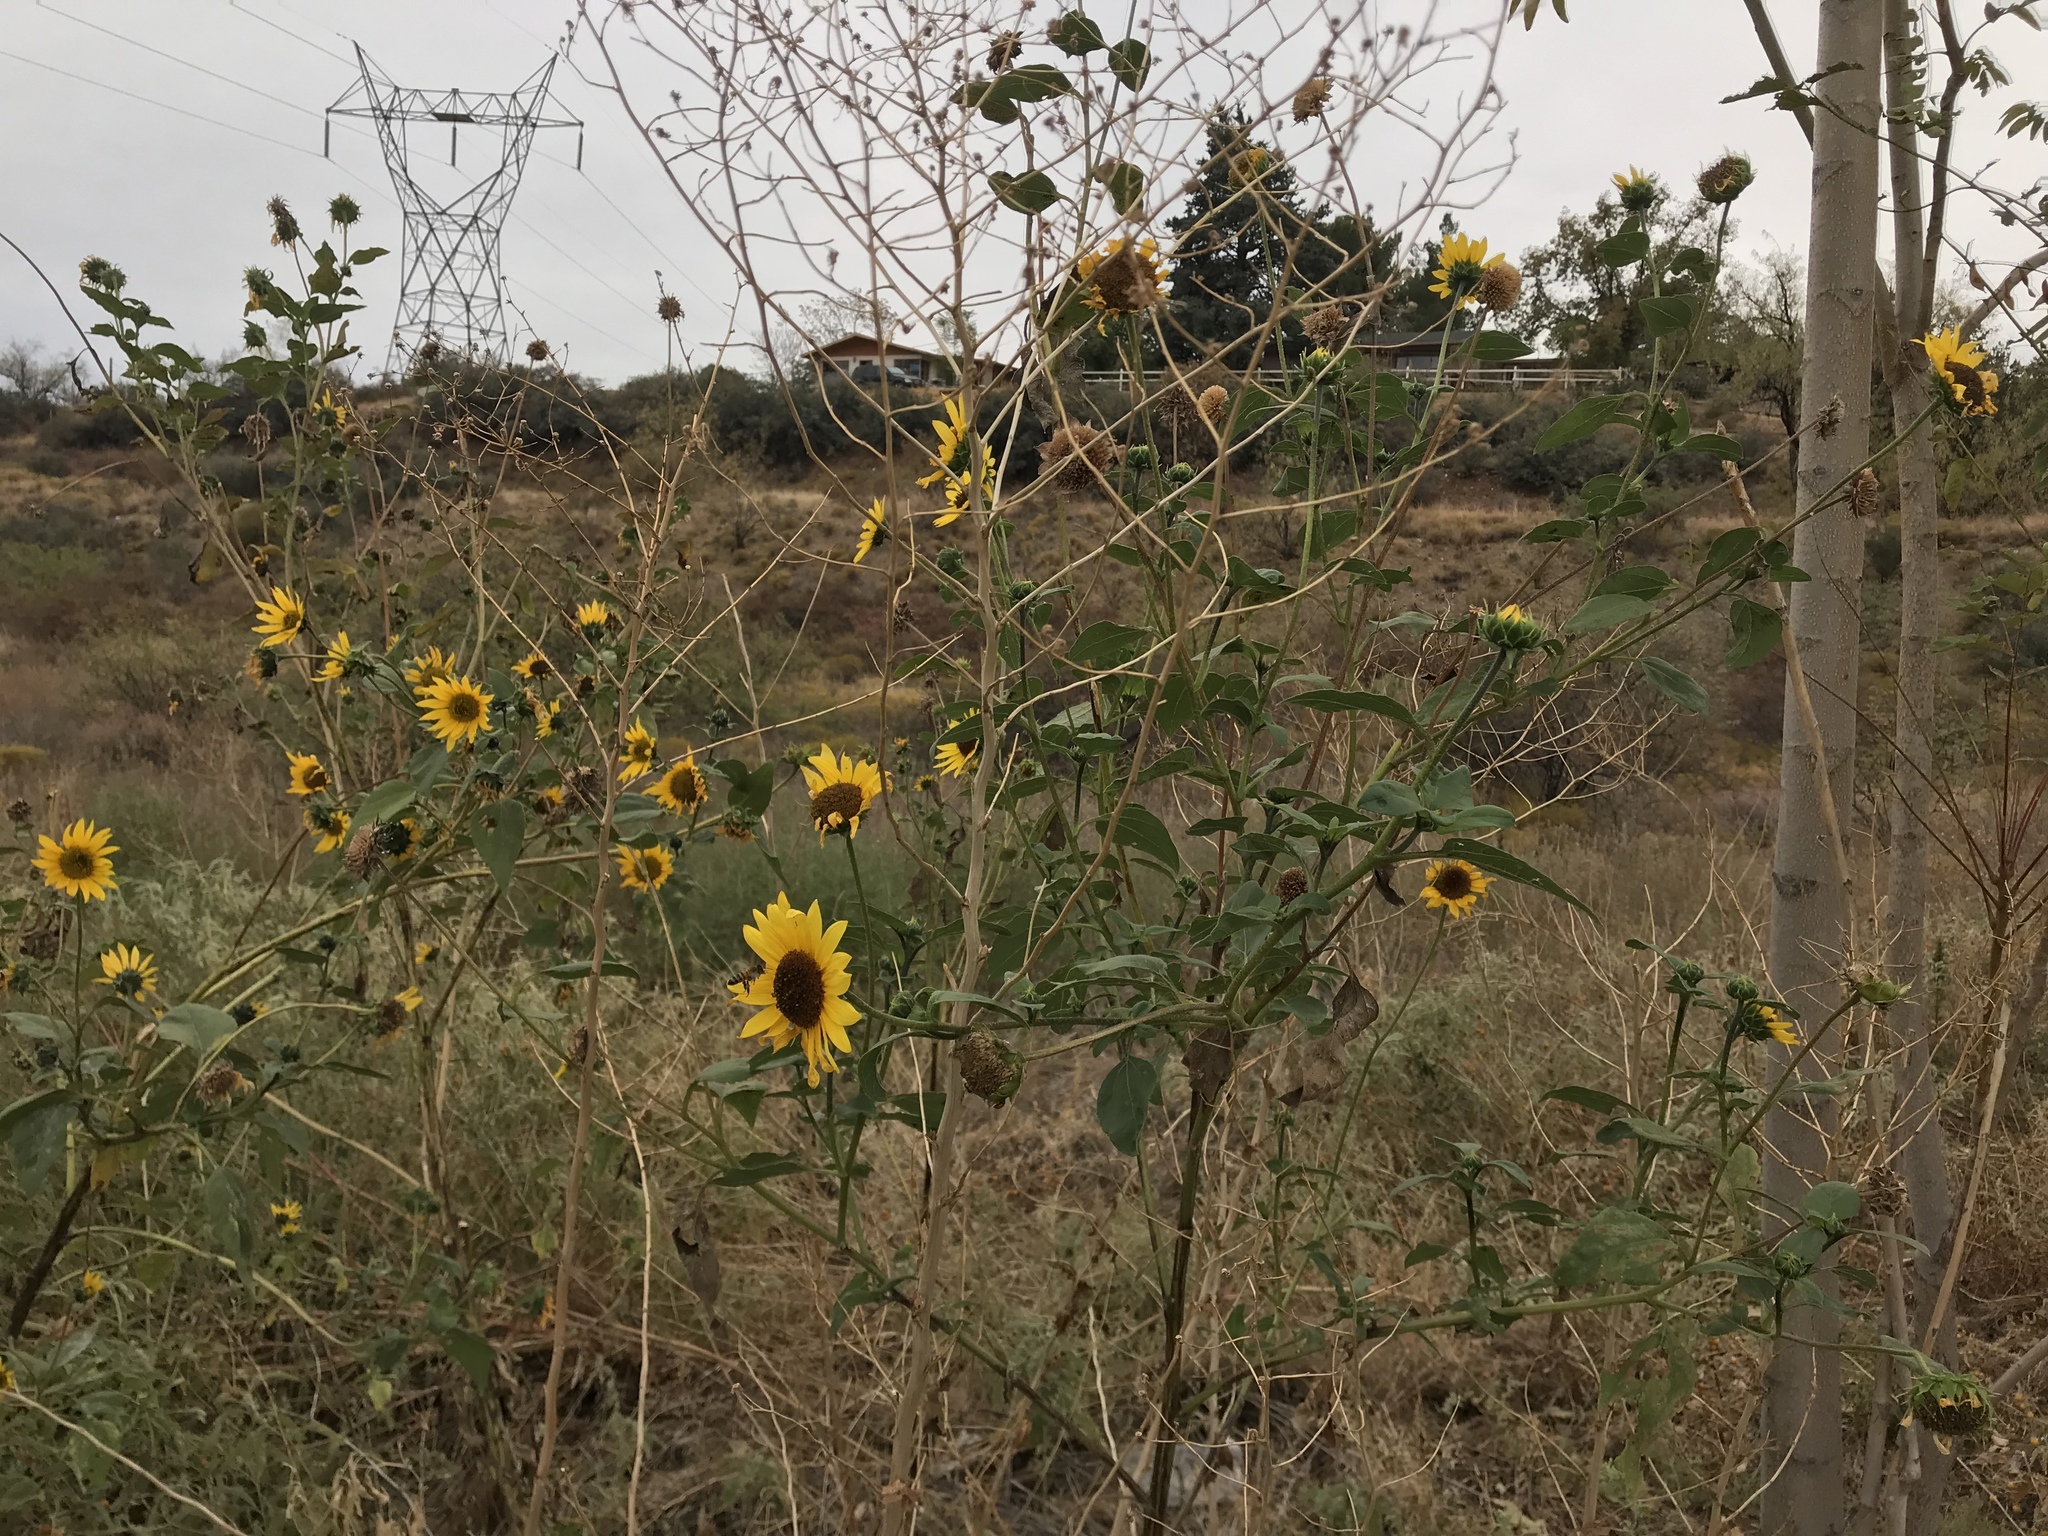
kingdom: Plantae
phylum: Tracheophyta
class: Magnoliopsida
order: Asterales
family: Asteraceae
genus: Helianthus
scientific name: Helianthus annuus
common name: Sunflower
